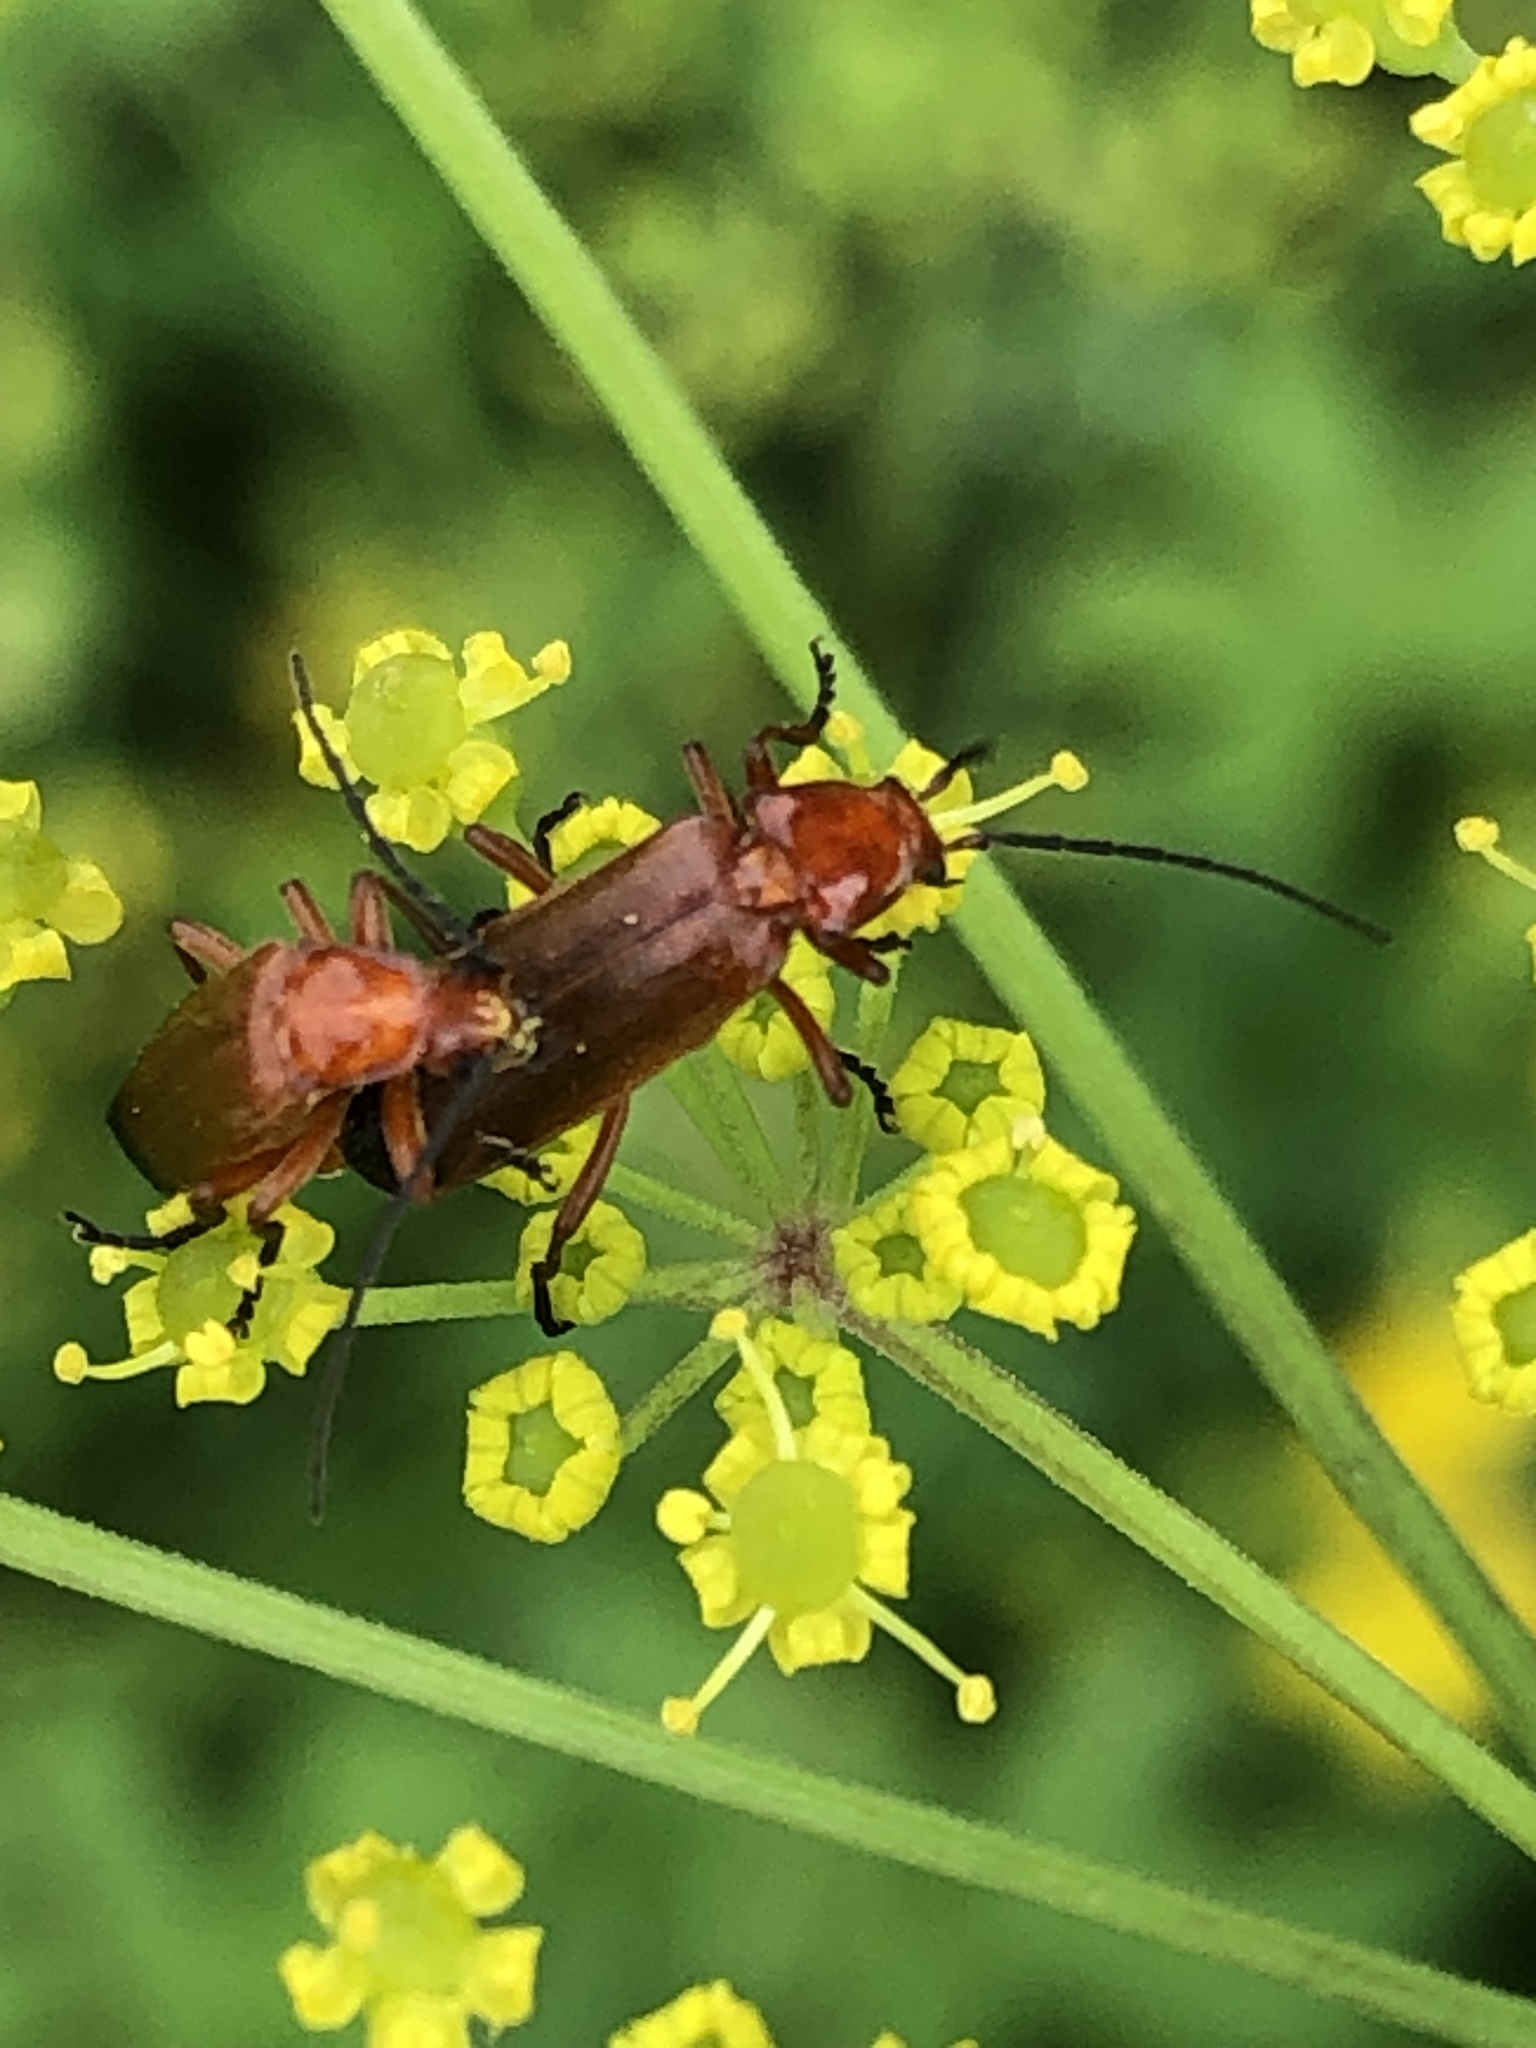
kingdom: Animalia
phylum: Arthropoda
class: Insecta
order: Coleoptera
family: Cantharidae
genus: Rhagonycha
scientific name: Rhagonycha fulva
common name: Common red soldier beetle
